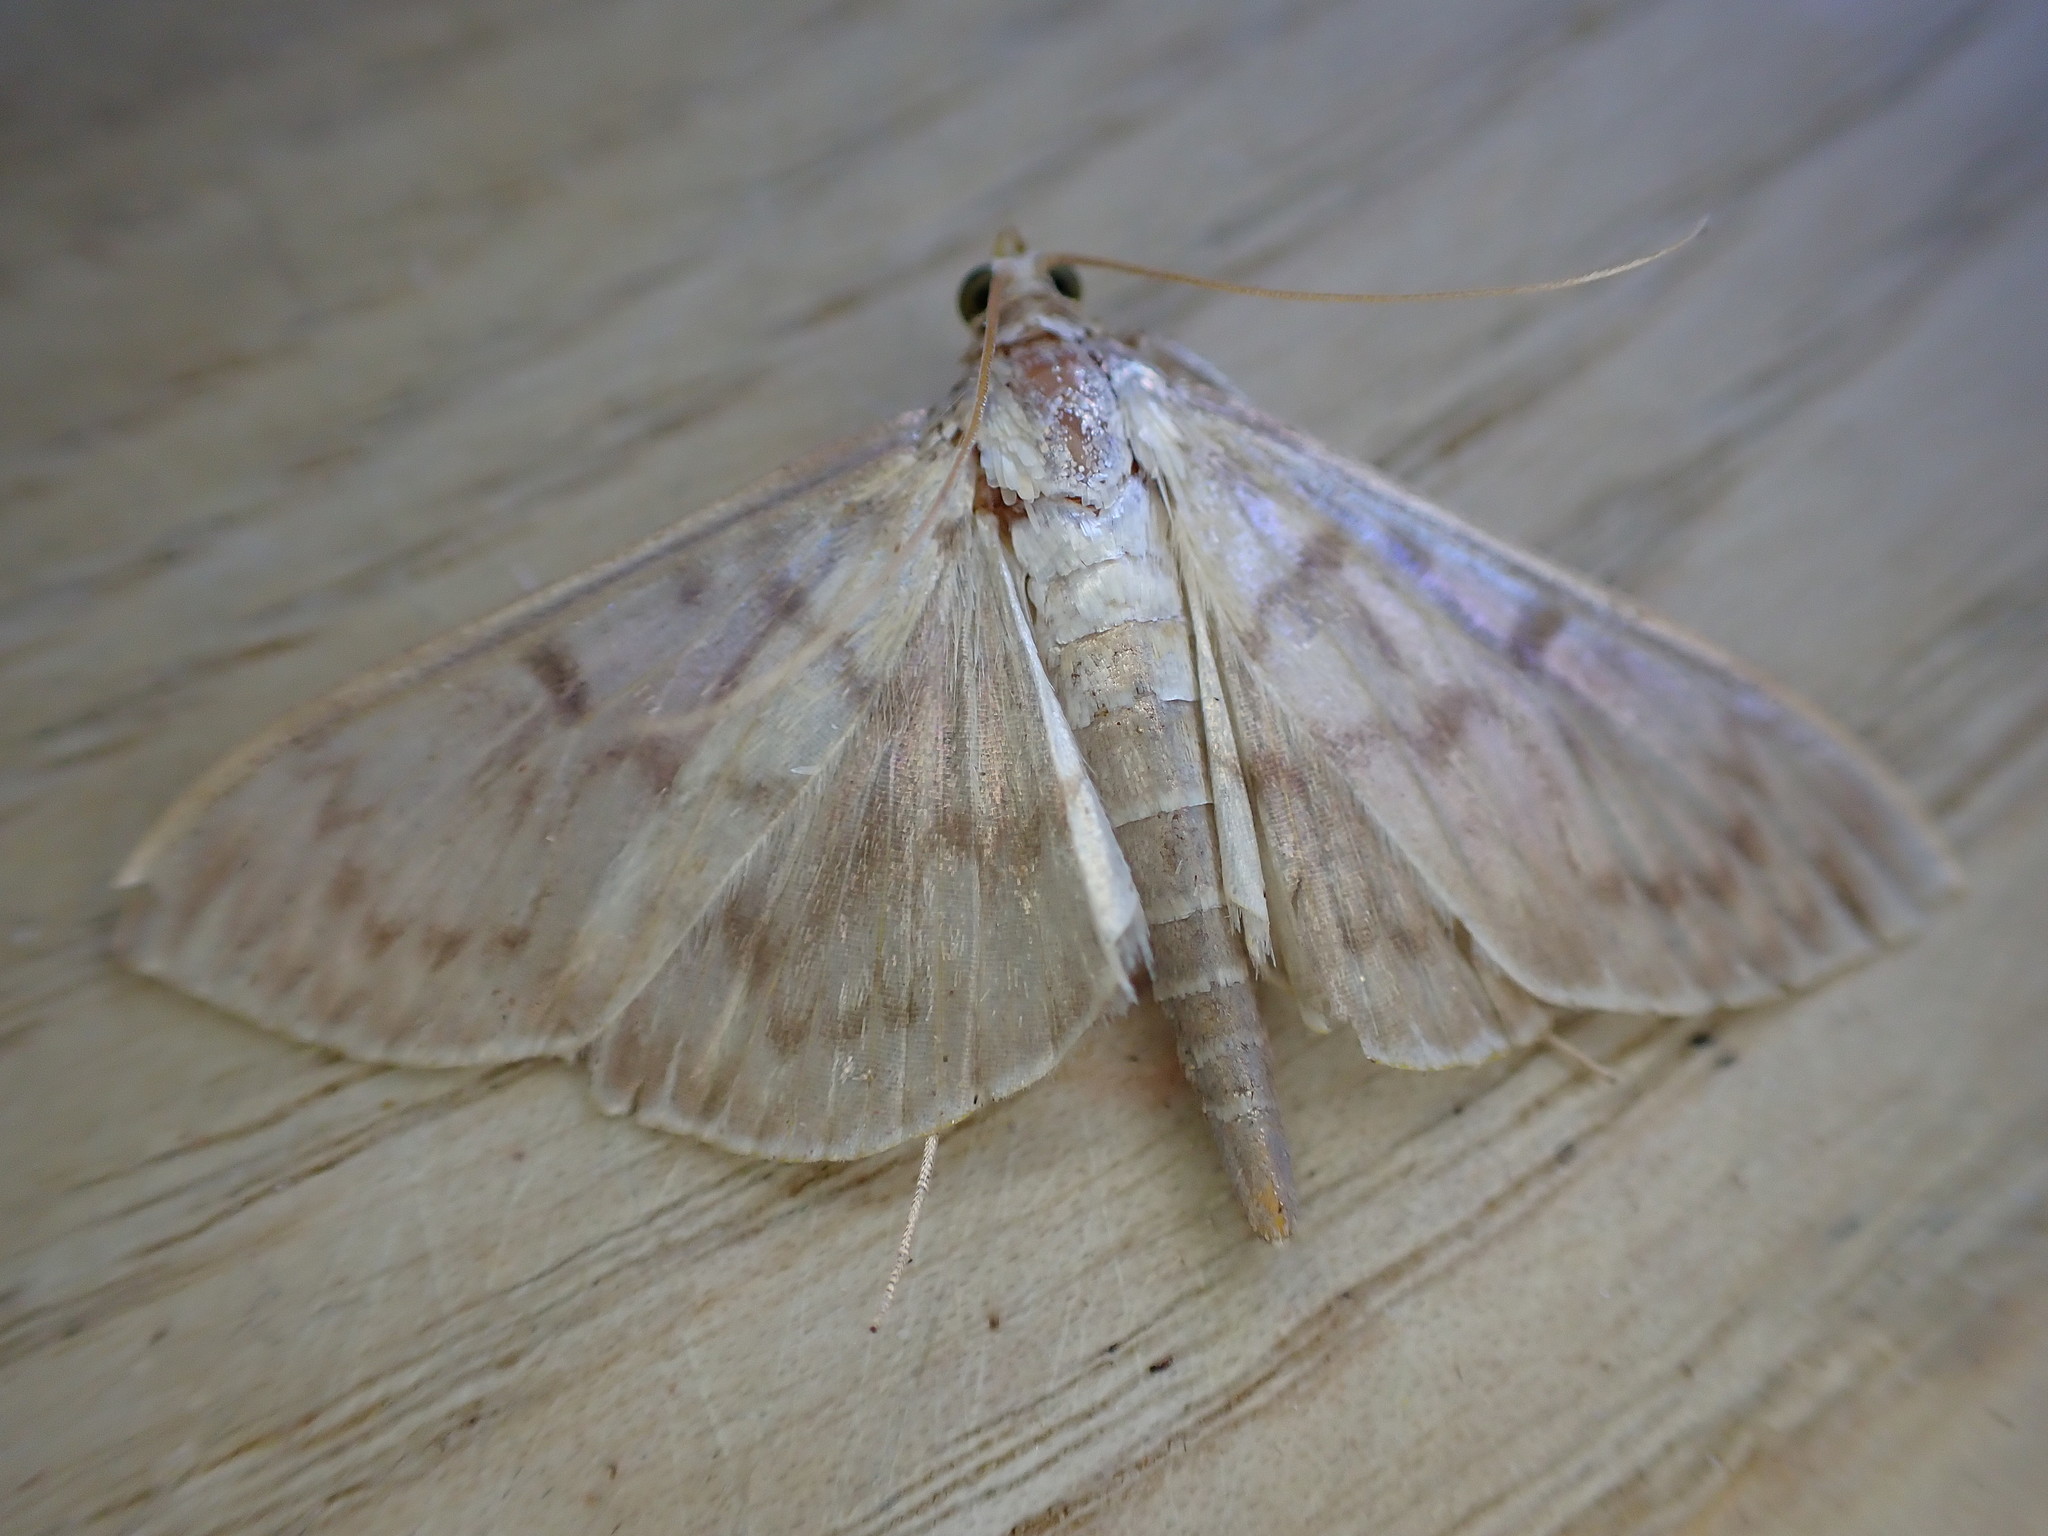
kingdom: Animalia
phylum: Arthropoda
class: Insecta
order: Lepidoptera
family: Crambidae
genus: Patania
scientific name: Patania ruralis
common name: Mother of pearl
